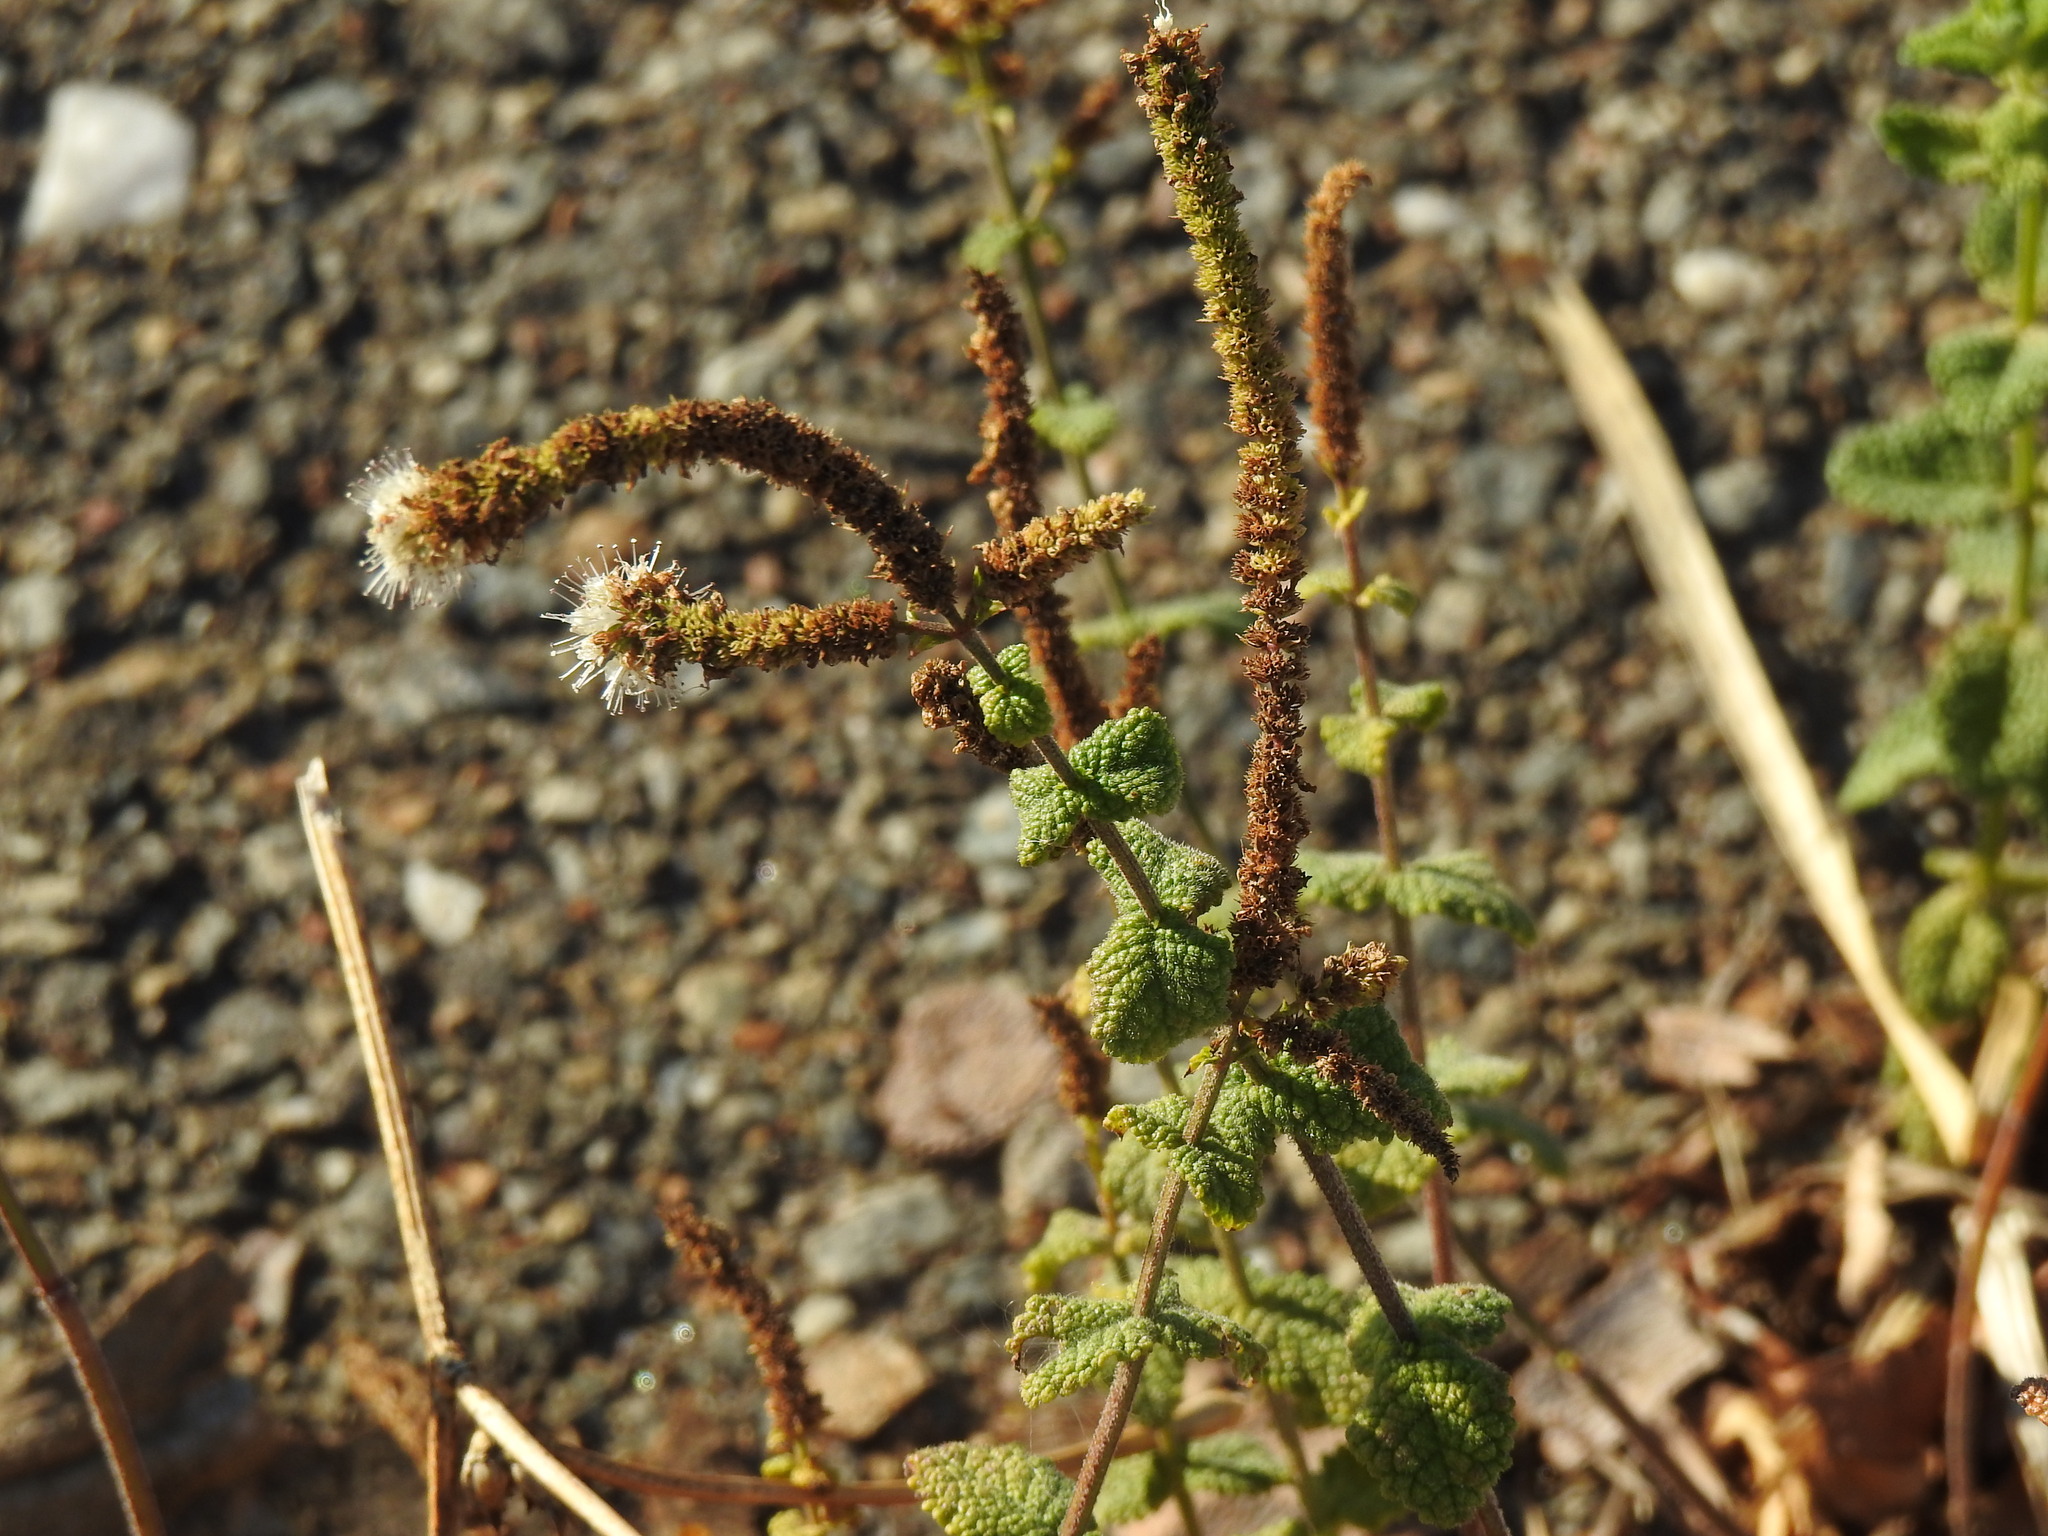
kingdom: Plantae
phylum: Tracheophyta
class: Magnoliopsida
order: Lamiales
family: Lamiaceae
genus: Mentha
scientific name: Mentha suaveolens
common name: Apple mint
